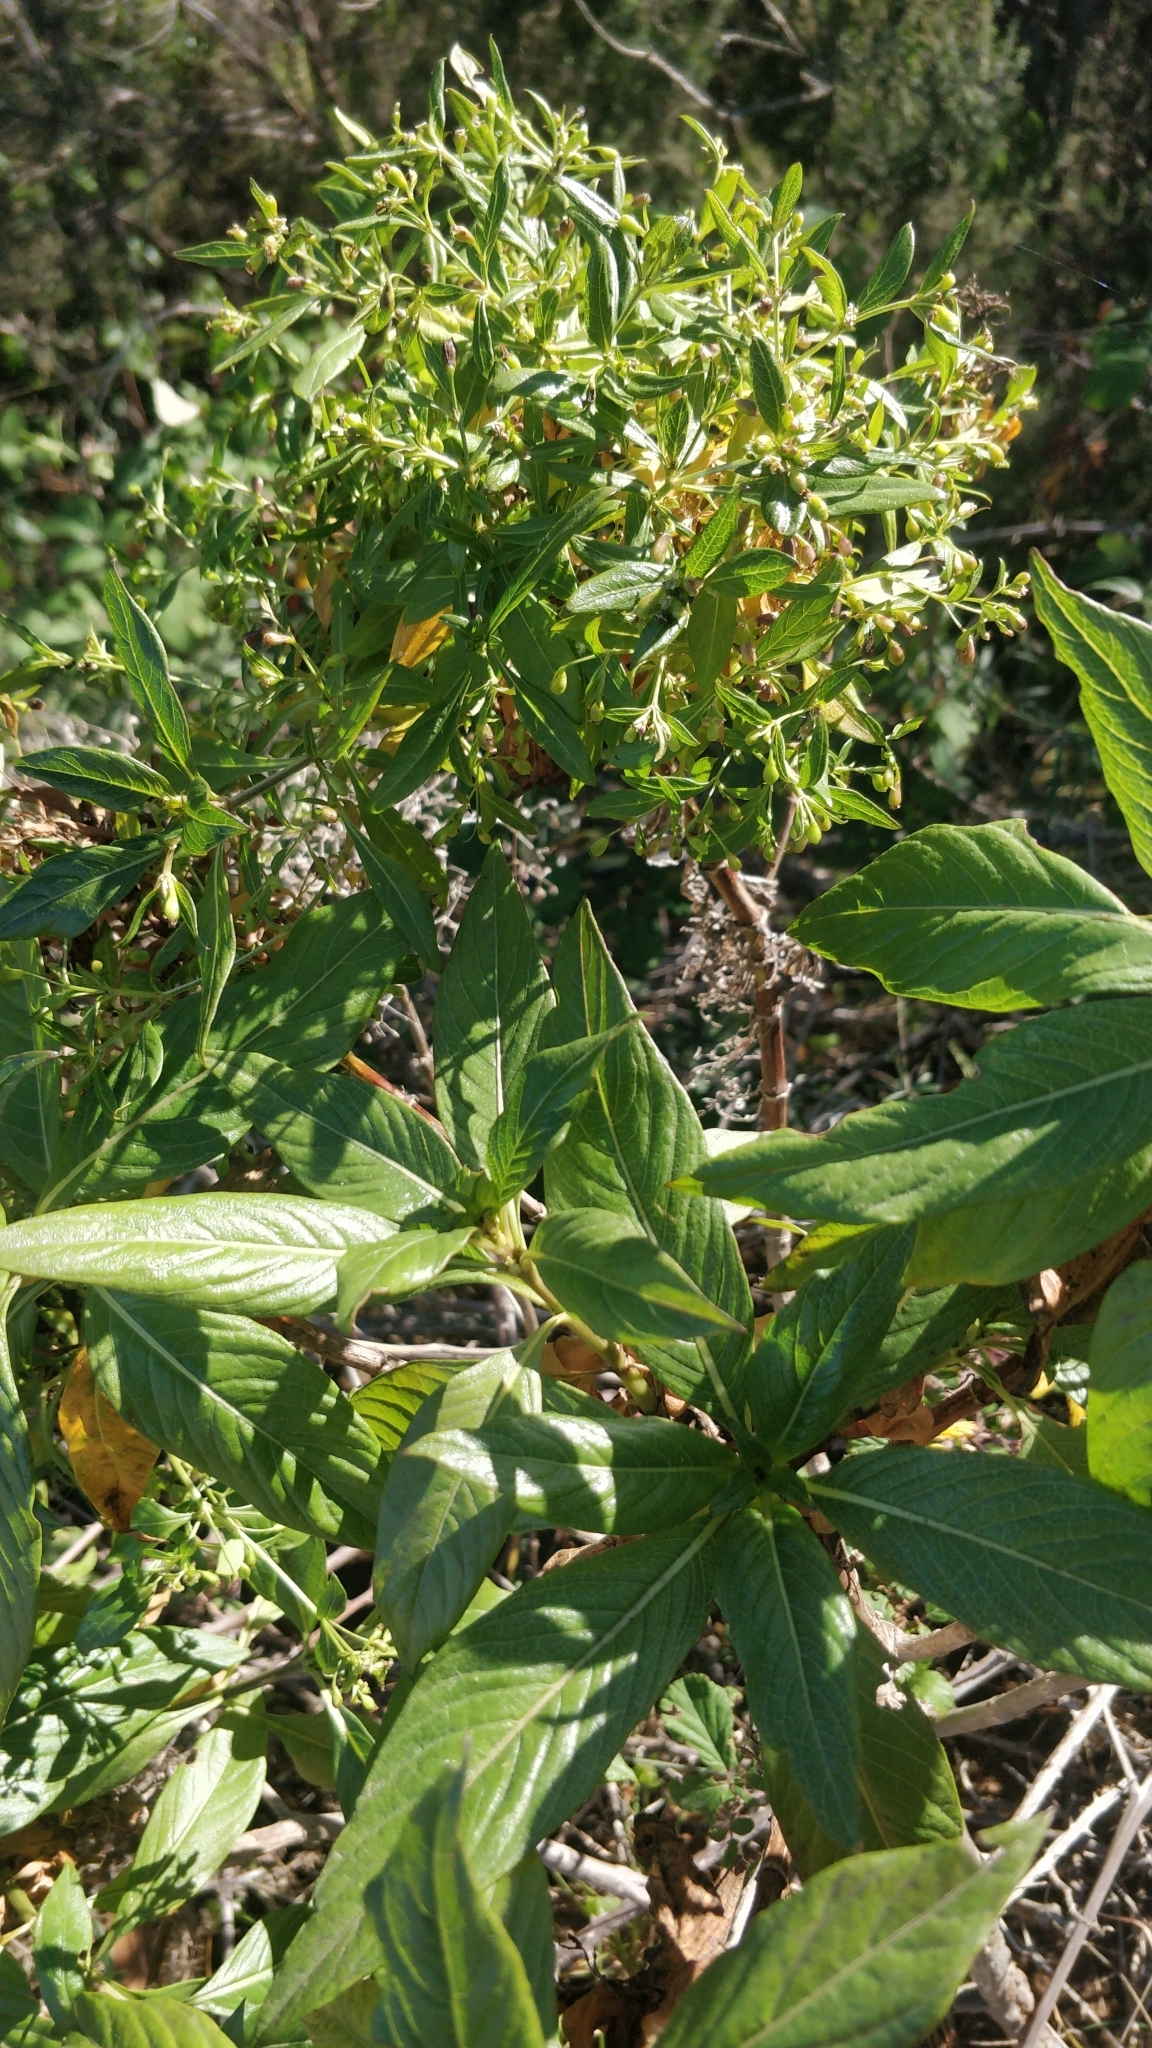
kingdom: Plantae
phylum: Tracheophyta
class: Magnoliopsida
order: Gentianales
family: Rubiaceae
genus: Phyllis
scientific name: Phyllis nobla
